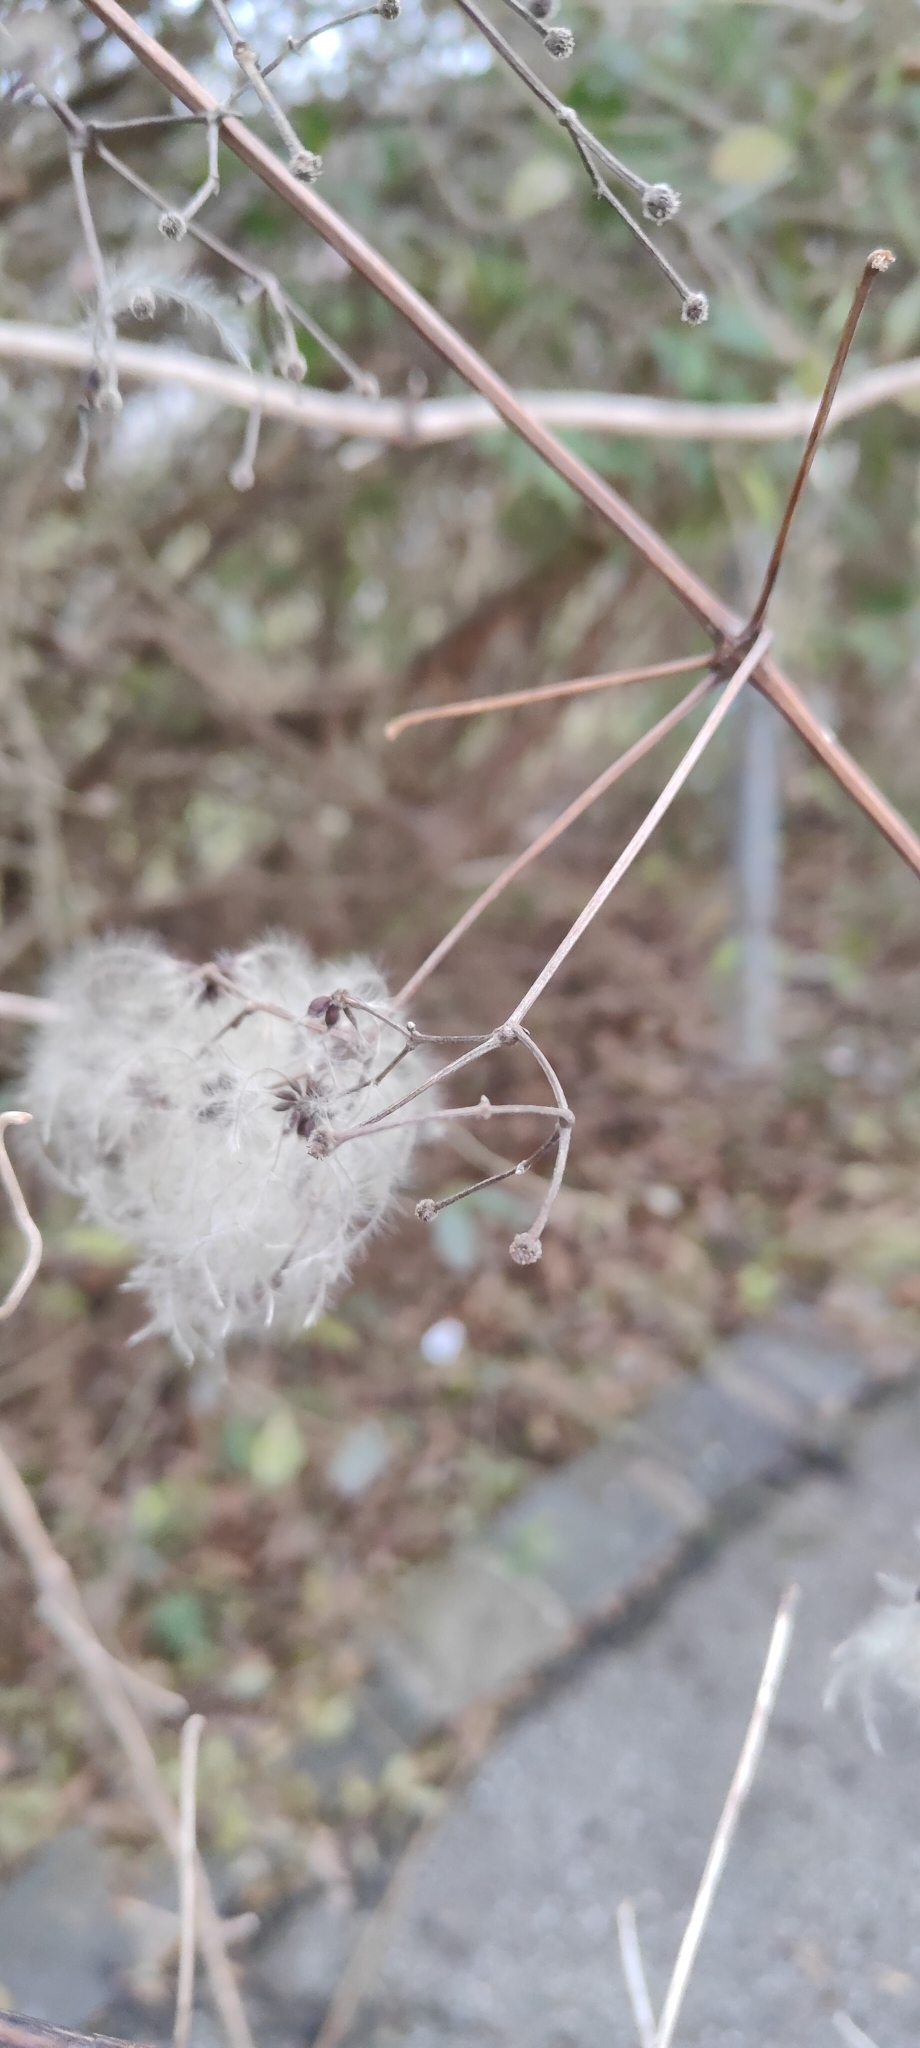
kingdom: Plantae
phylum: Tracheophyta
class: Magnoliopsida
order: Ranunculales
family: Ranunculaceae
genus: Clematis
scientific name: Clematis vitalba
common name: Evergreen clematis
